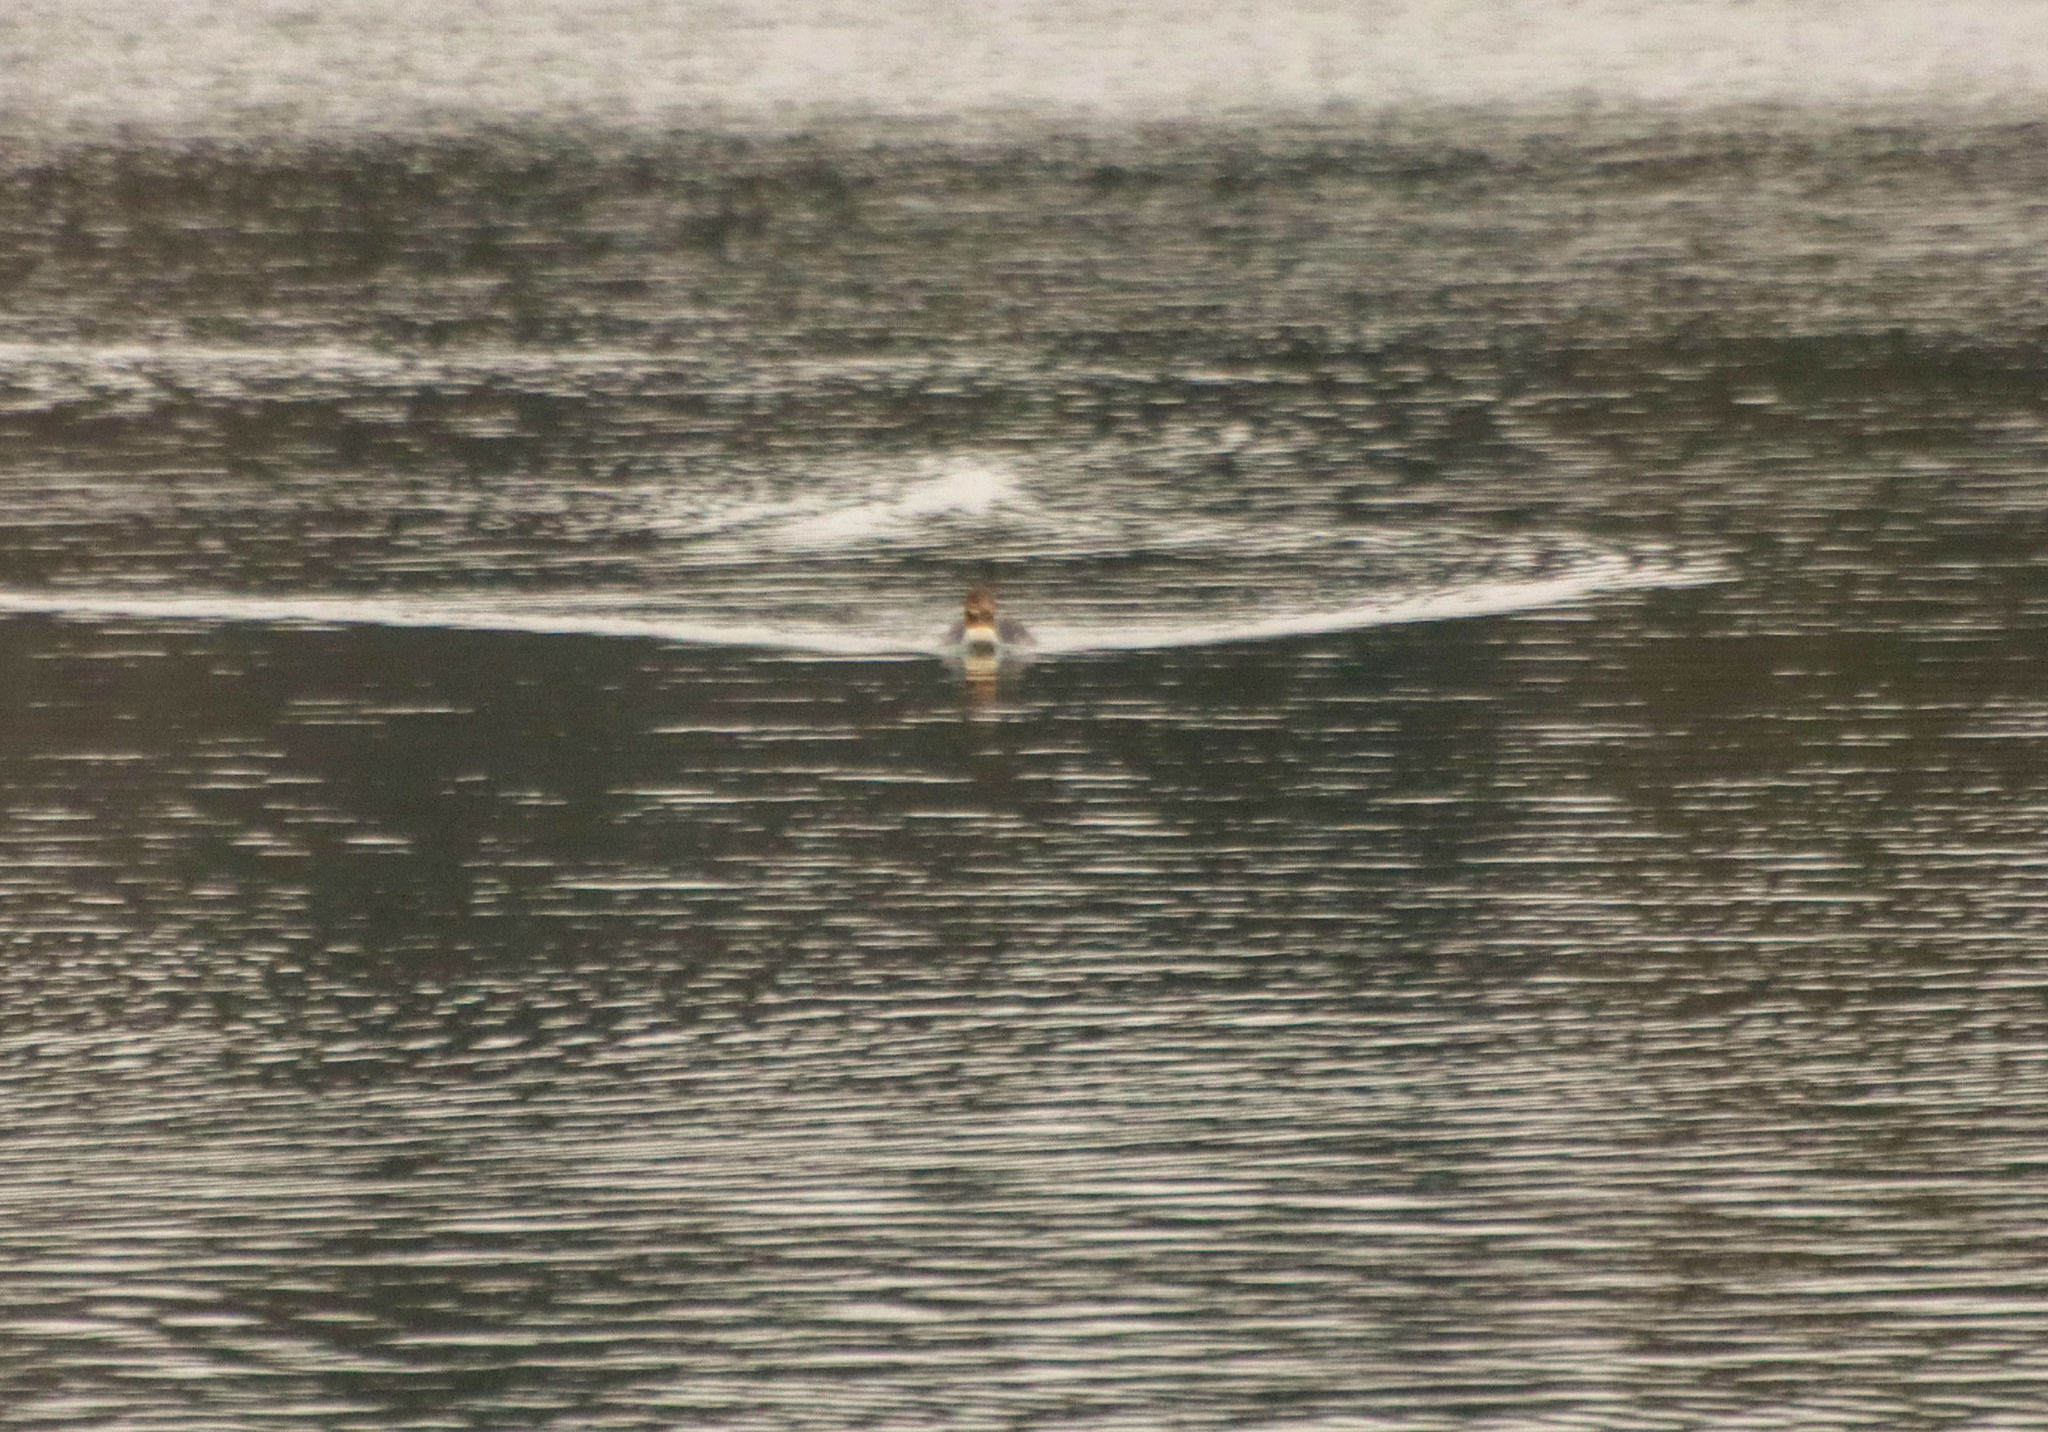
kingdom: Animalia
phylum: Chordata
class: Aves
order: Anseriformes
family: Anatidae
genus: Mergus
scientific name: Mergus merganser
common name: Common merganser
